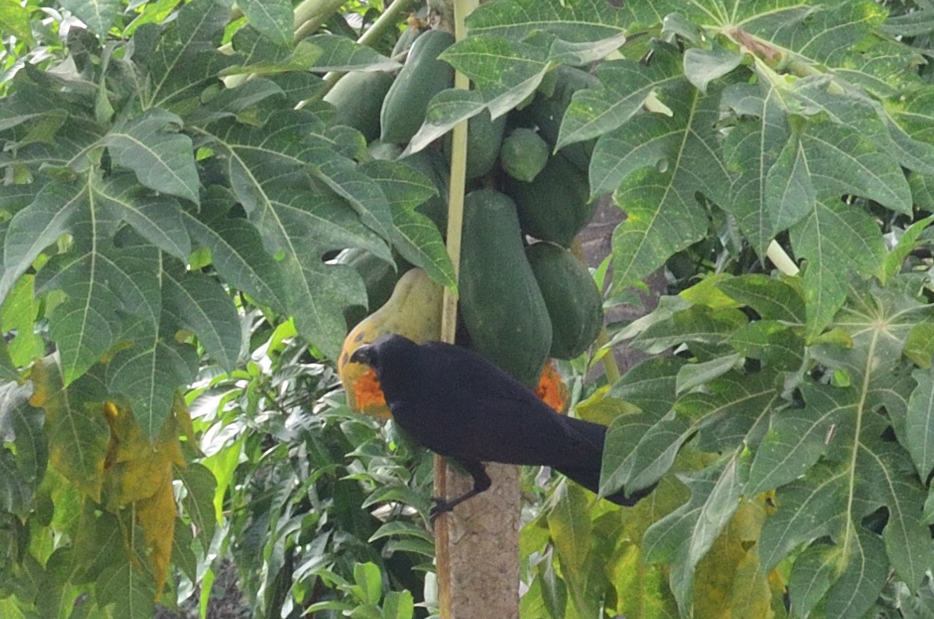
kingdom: Animalia
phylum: Chordata
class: Aves
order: Passeriformes
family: Corvidae
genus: Corvus
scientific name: Corvus macrorhynchos
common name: Large-billed crow
